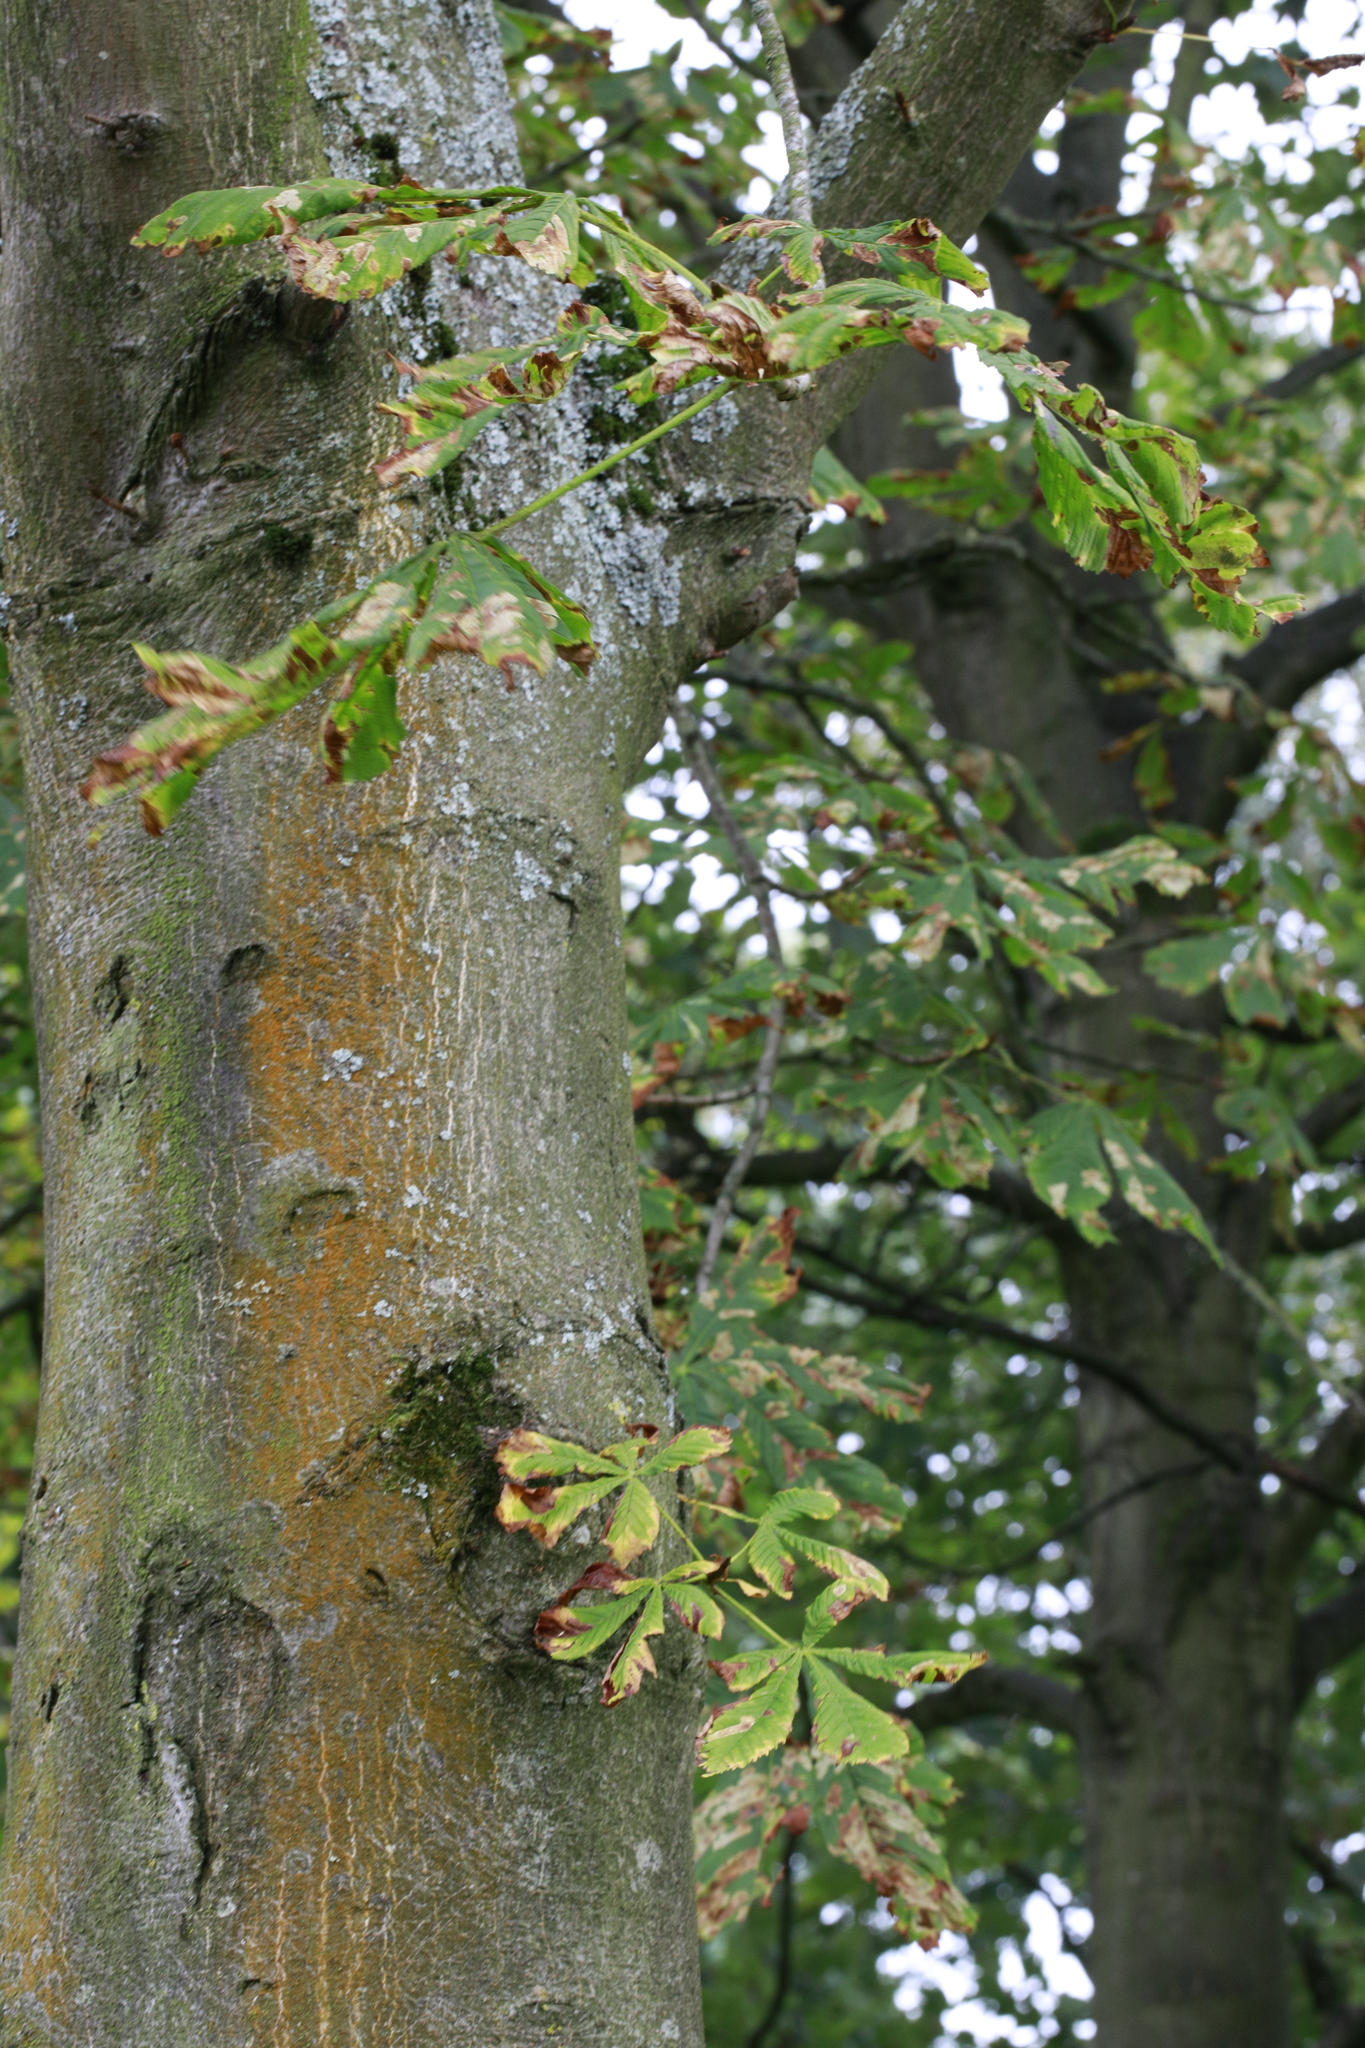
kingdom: Plantae
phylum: Tracheophyta
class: Magnoliopsida
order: Sapindales
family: Sapindaceae
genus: Aesculus
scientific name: Aesculus hippocastanum
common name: Horse-chestnut
